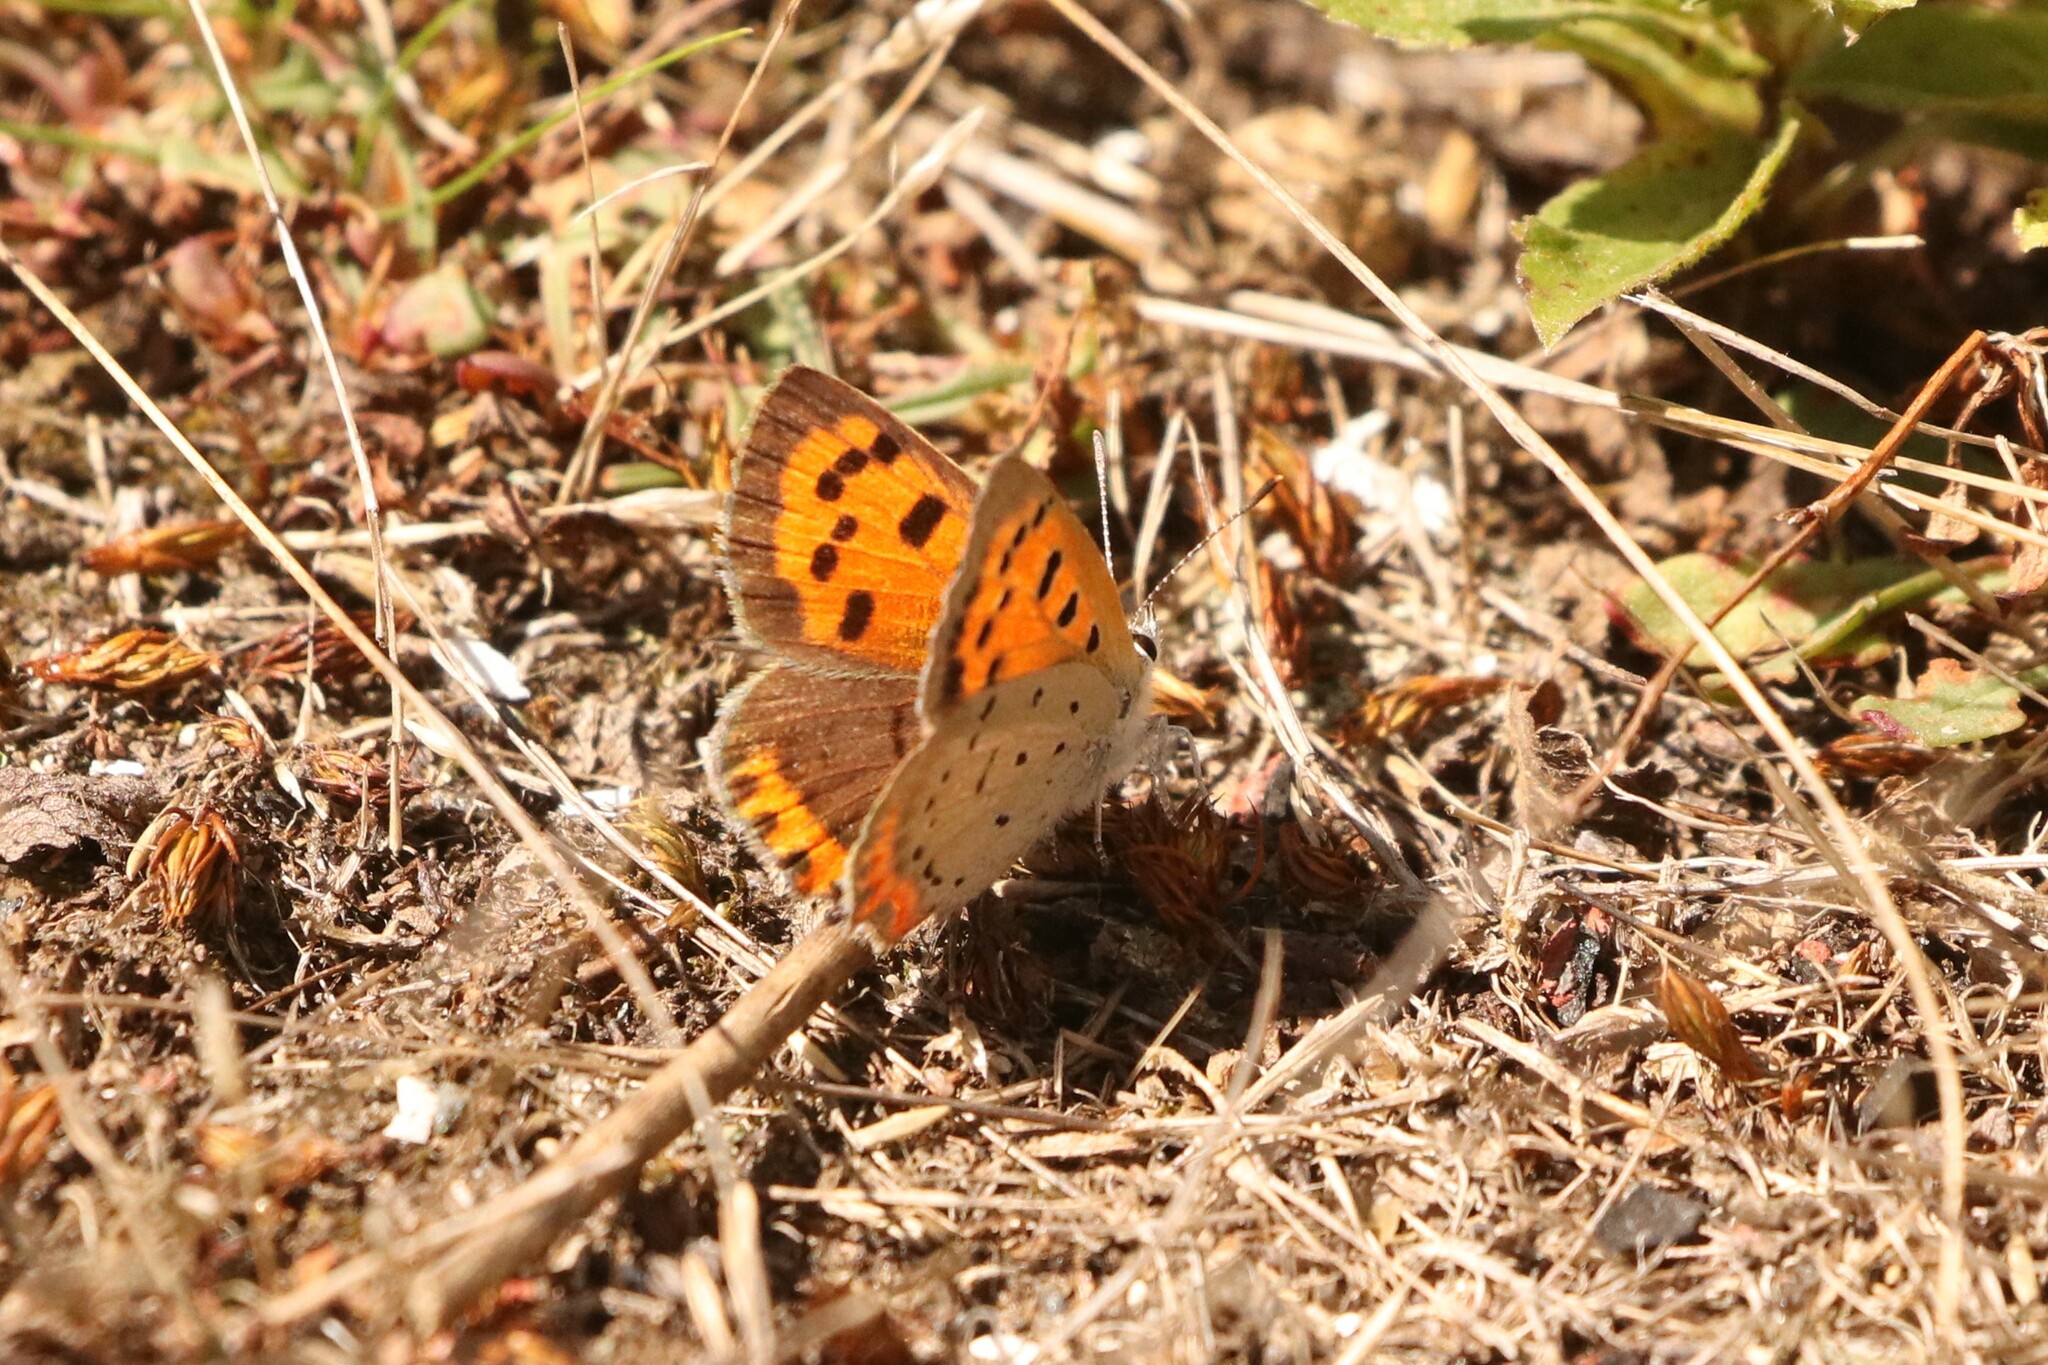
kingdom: Animalia
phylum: Arthropoda
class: Insecta
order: Lepidoptera
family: Lycaenidae
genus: Lycaena
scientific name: Lycaena hypophlaeas
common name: American copper
